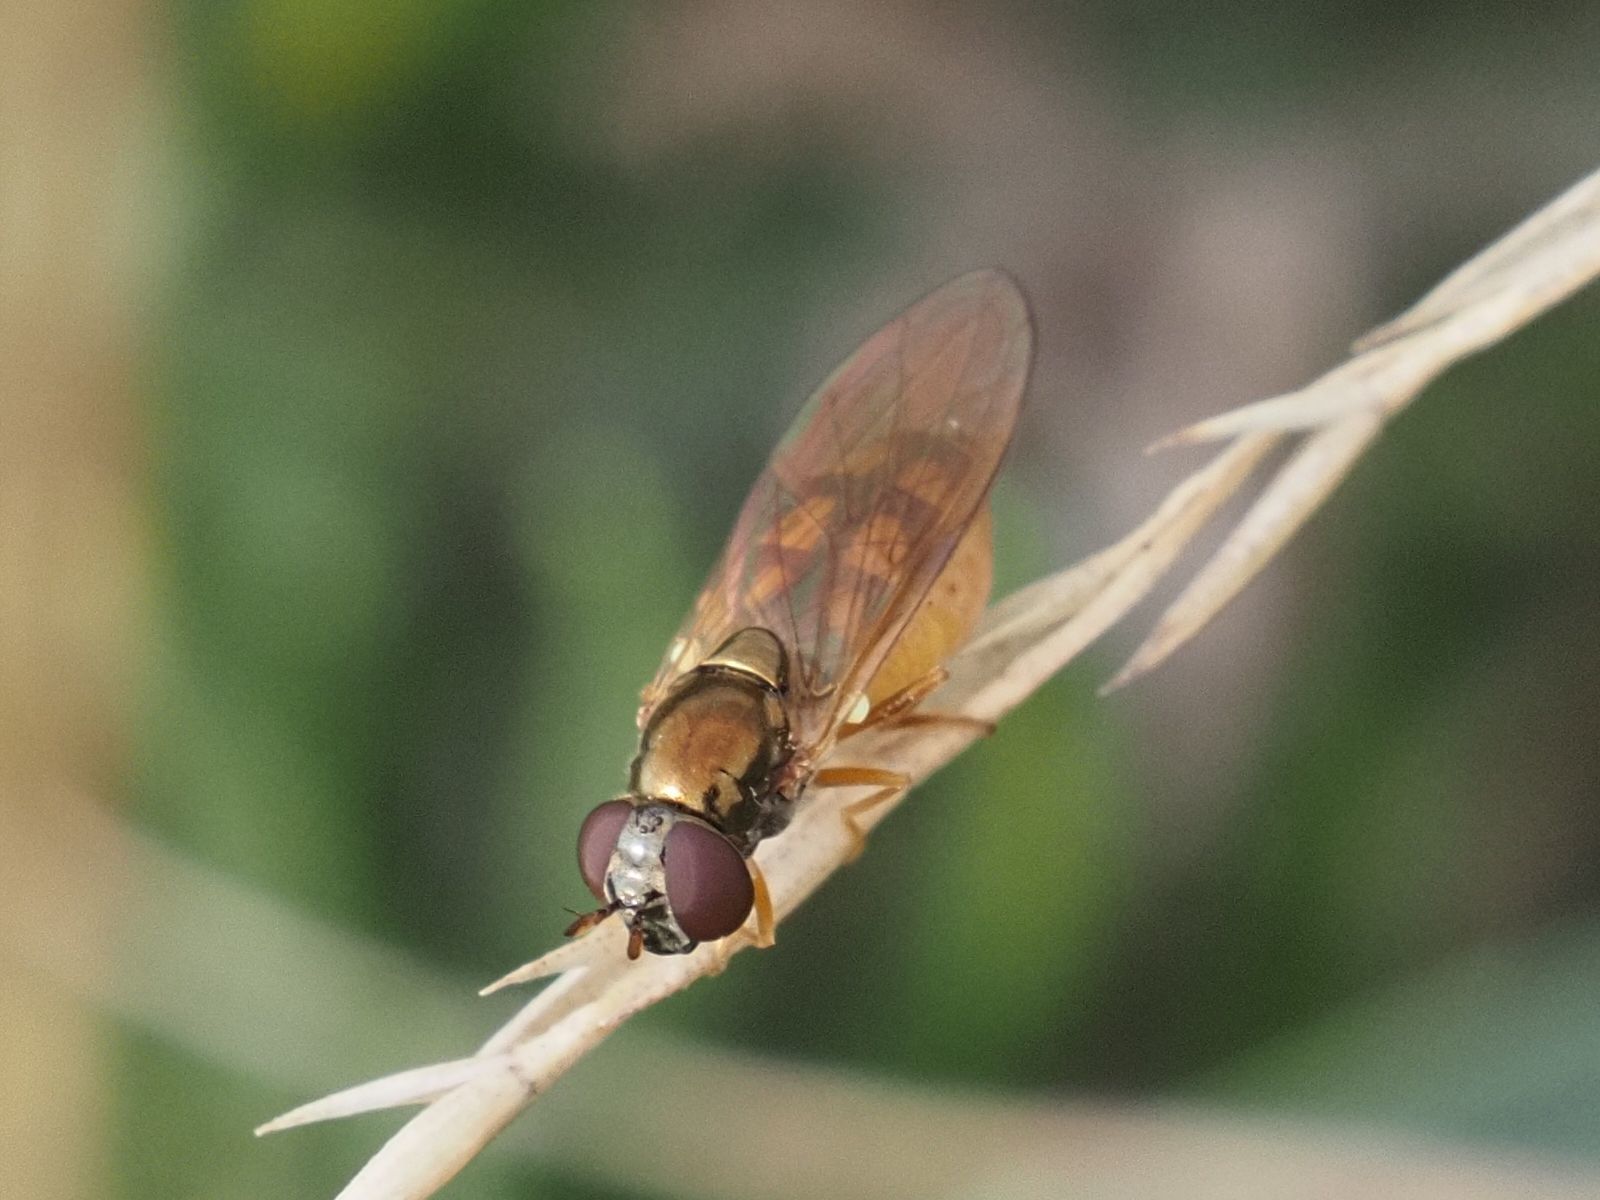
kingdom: Animalia
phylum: Arthropoda
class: Insecta
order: Diptera
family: Syrphidae
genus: Melanostoma
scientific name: Melanostoma mellina
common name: Hover fly
